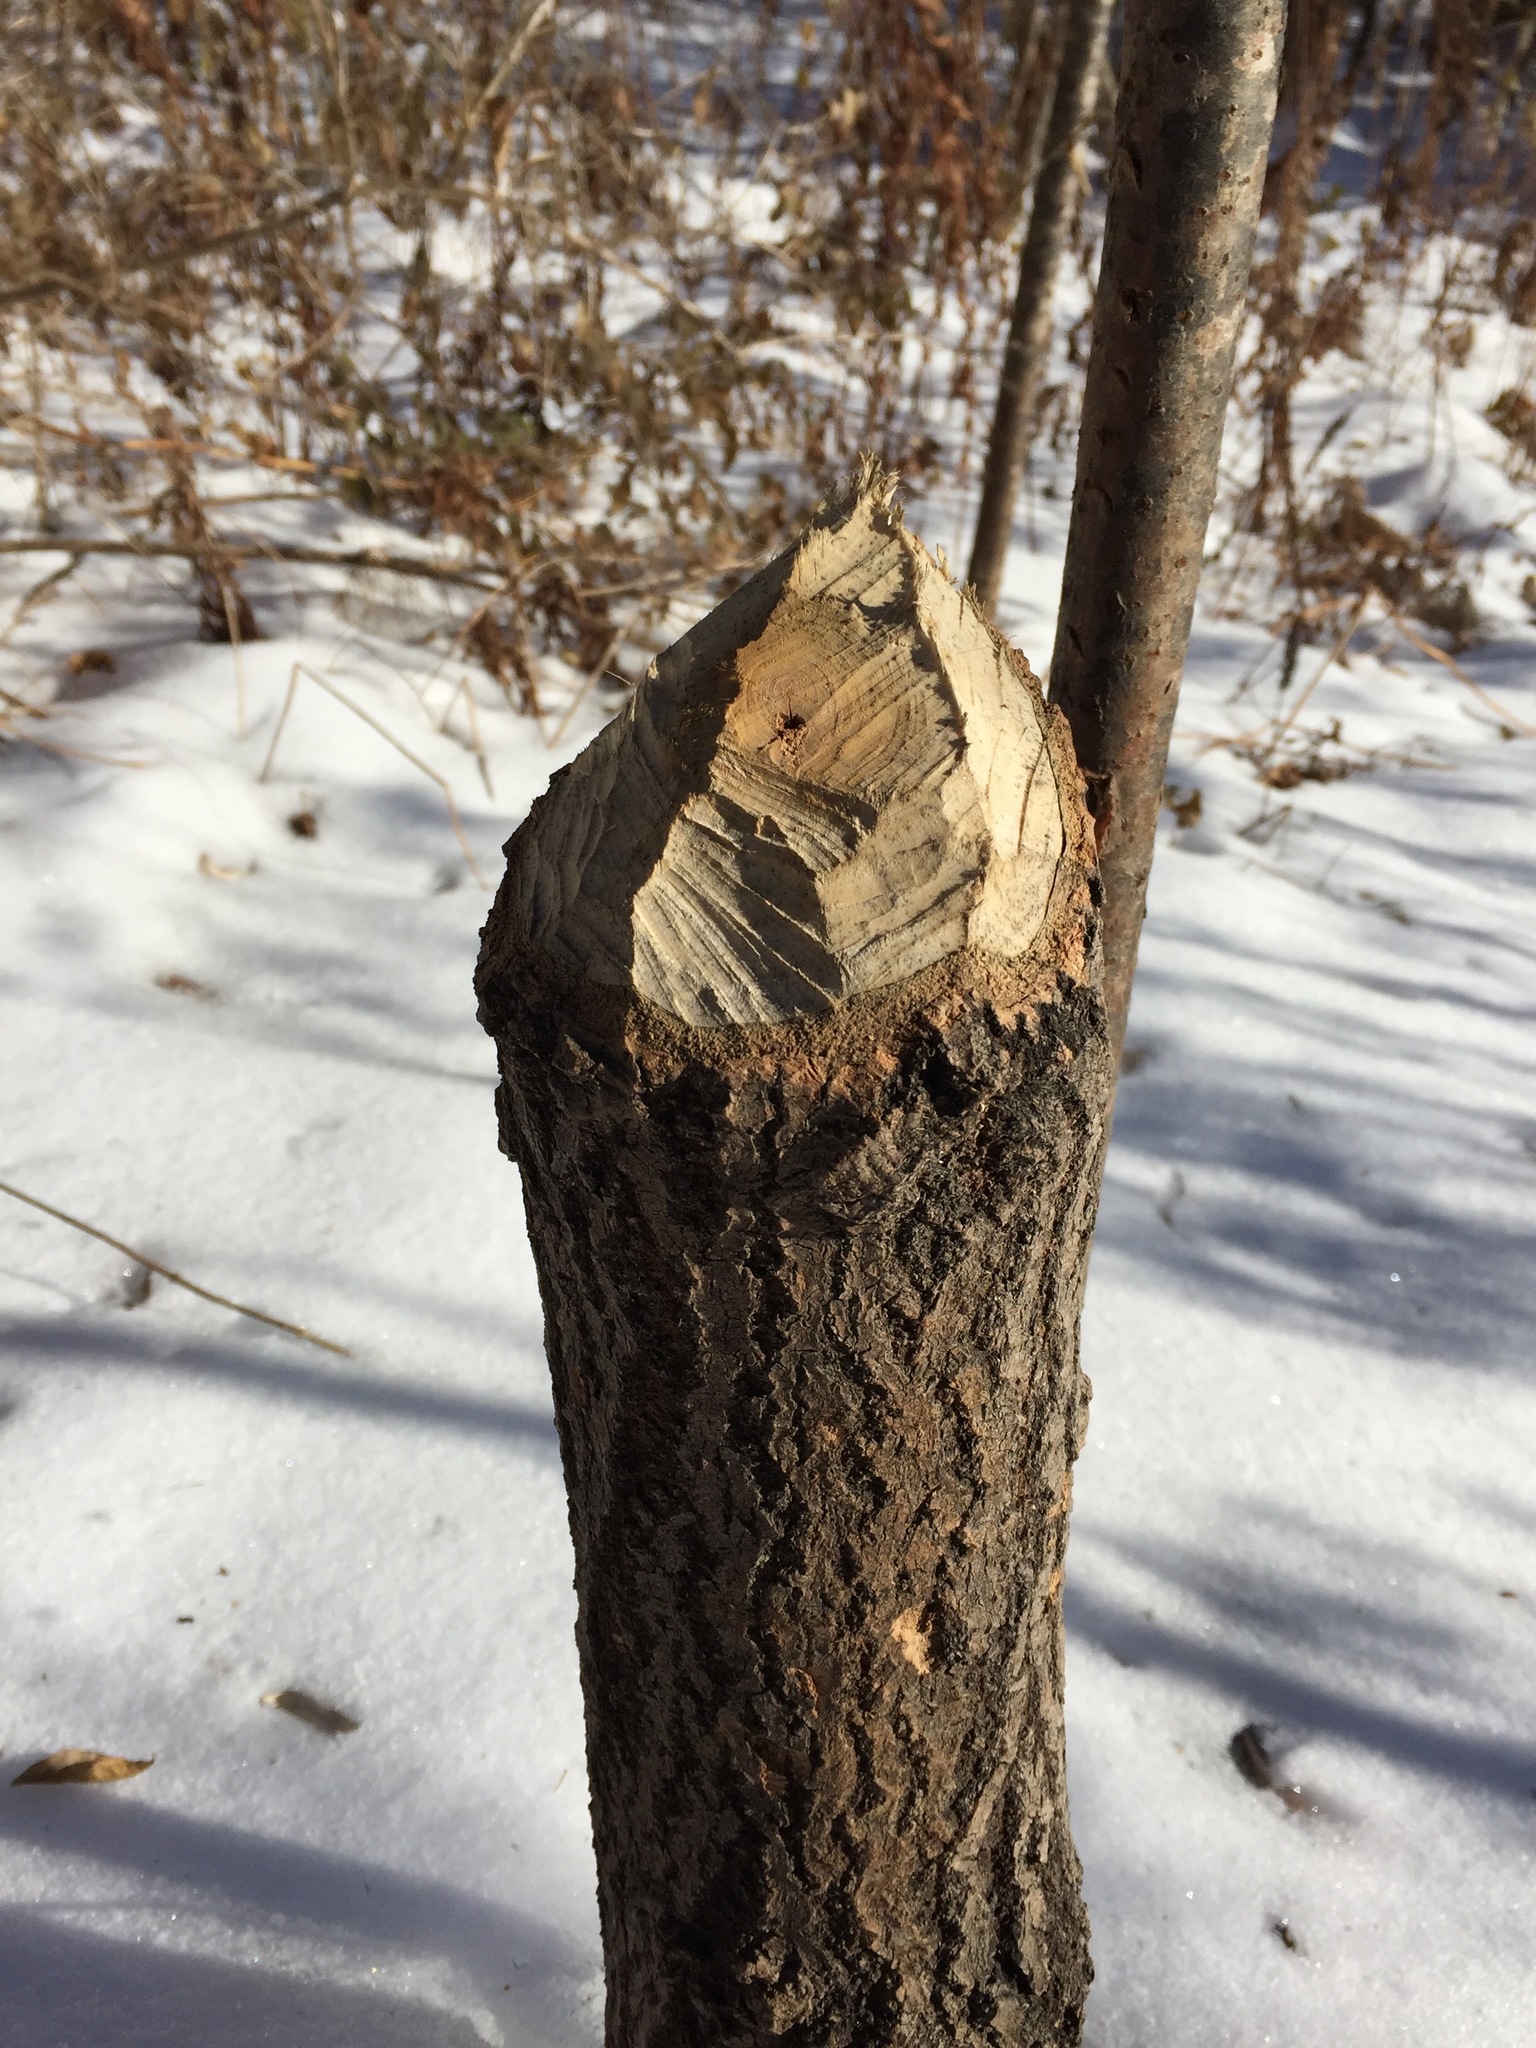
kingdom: Animalia
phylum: Chordata
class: Mammalia
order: Rodentia
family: Castoridae
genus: Castor
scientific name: Castor canadensis
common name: American beaver
